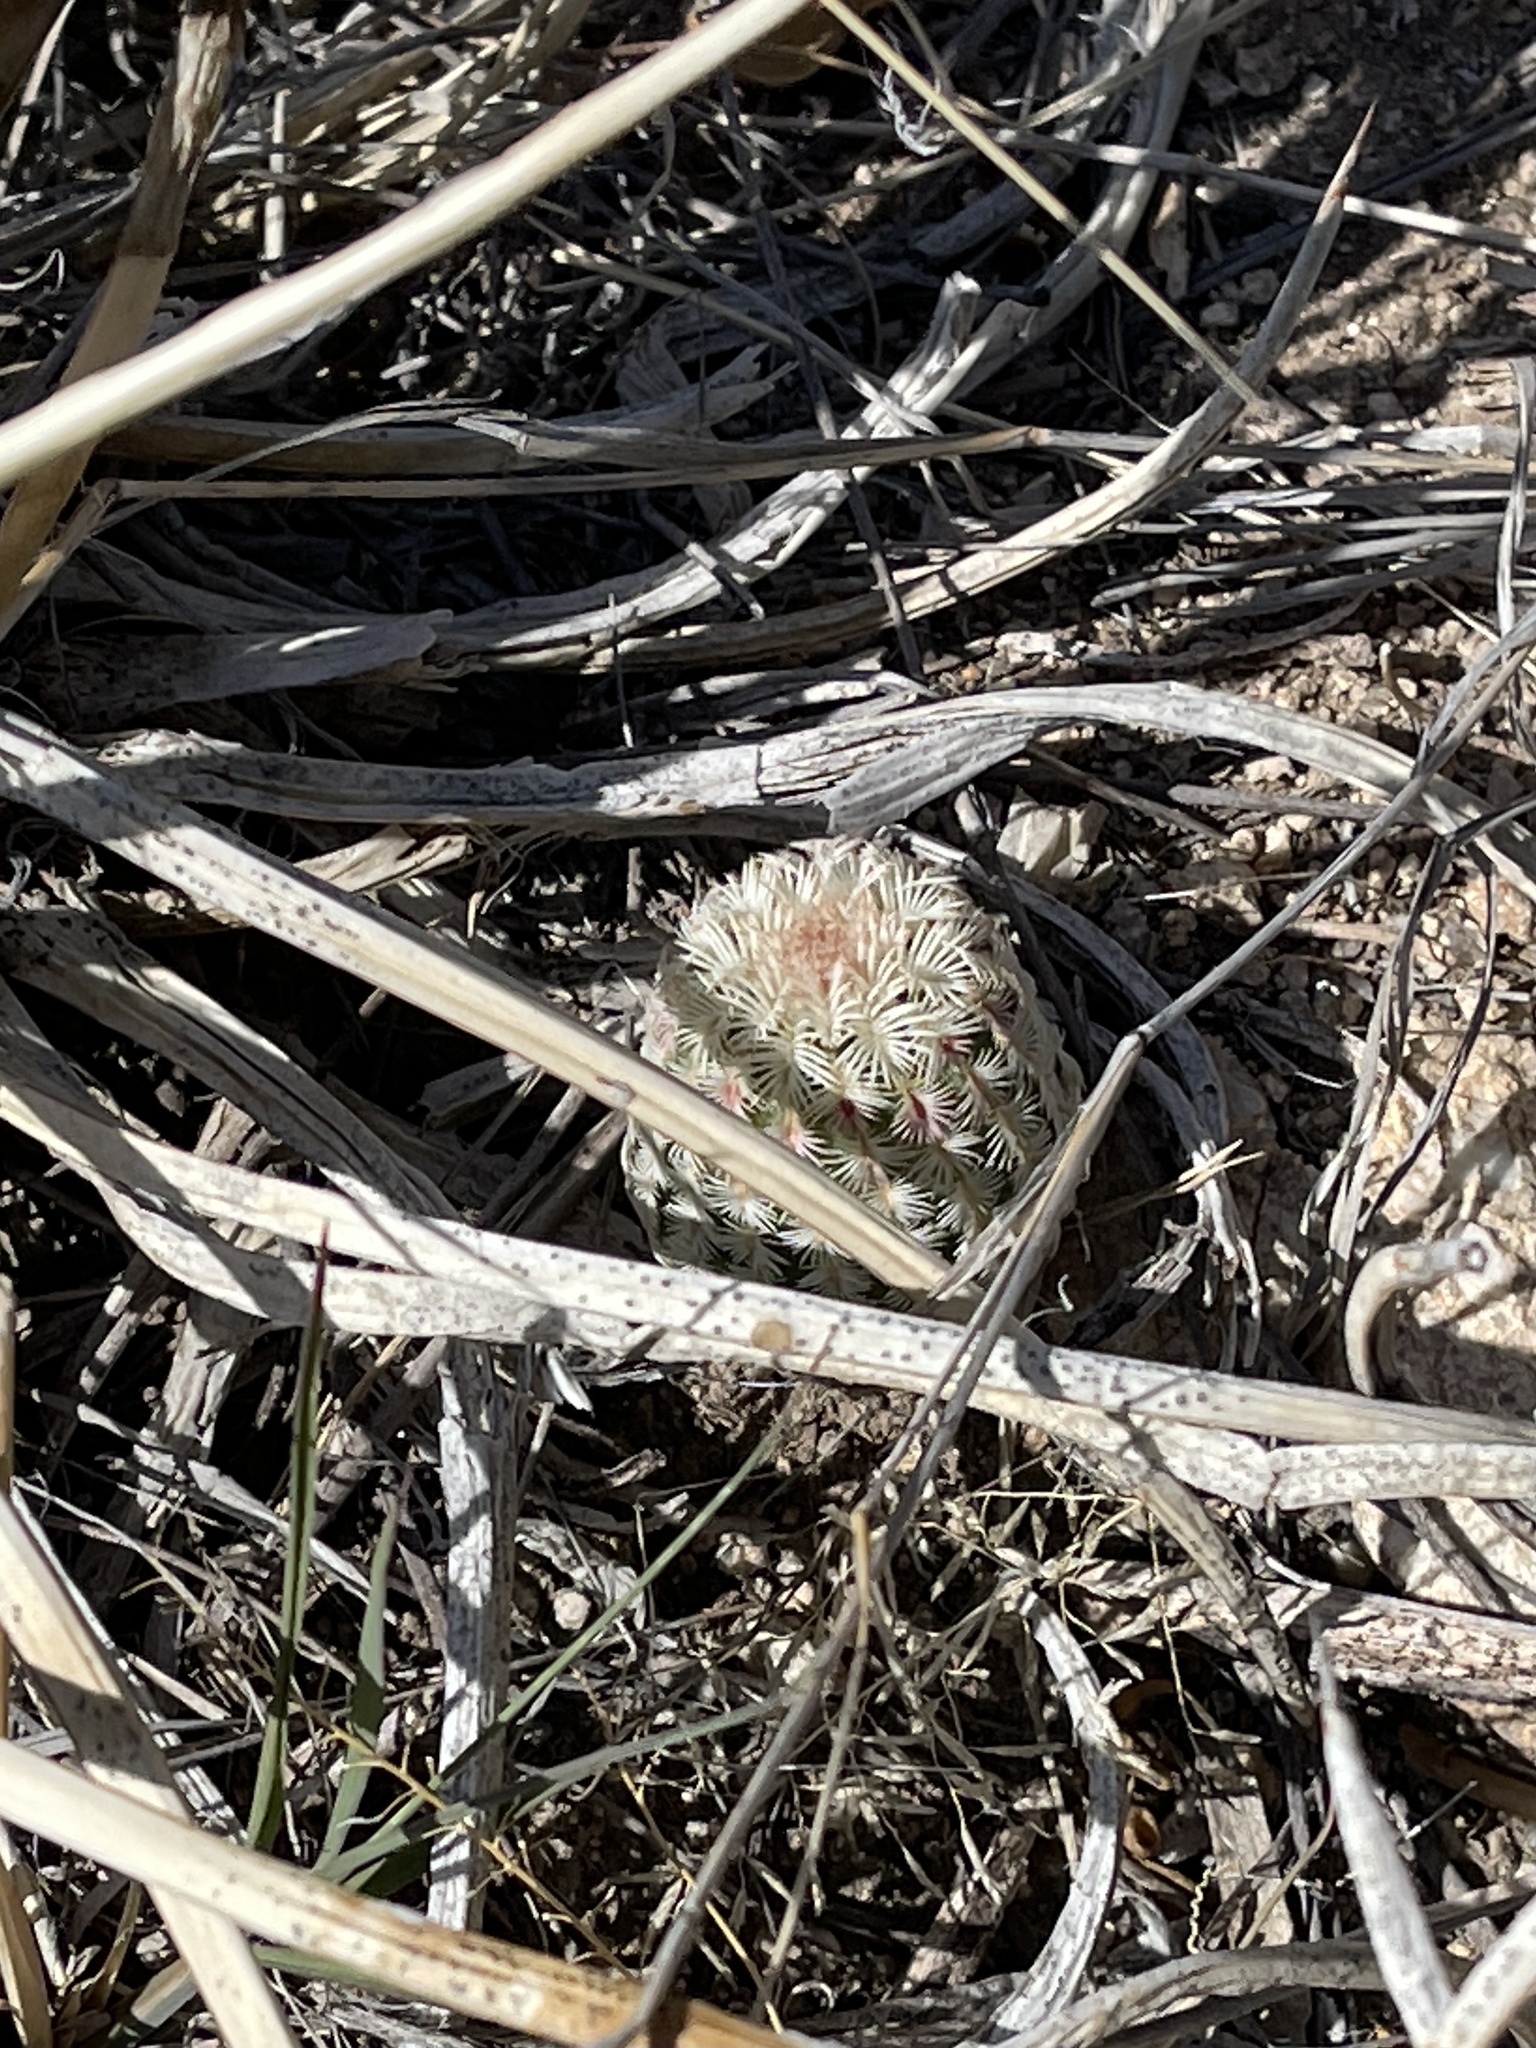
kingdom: Plantae
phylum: Tracheophyta
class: Magnoliopsida
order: Caryophyllales
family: Cactaceae
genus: Echinocereus
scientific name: Echinocereus rigidissimus
